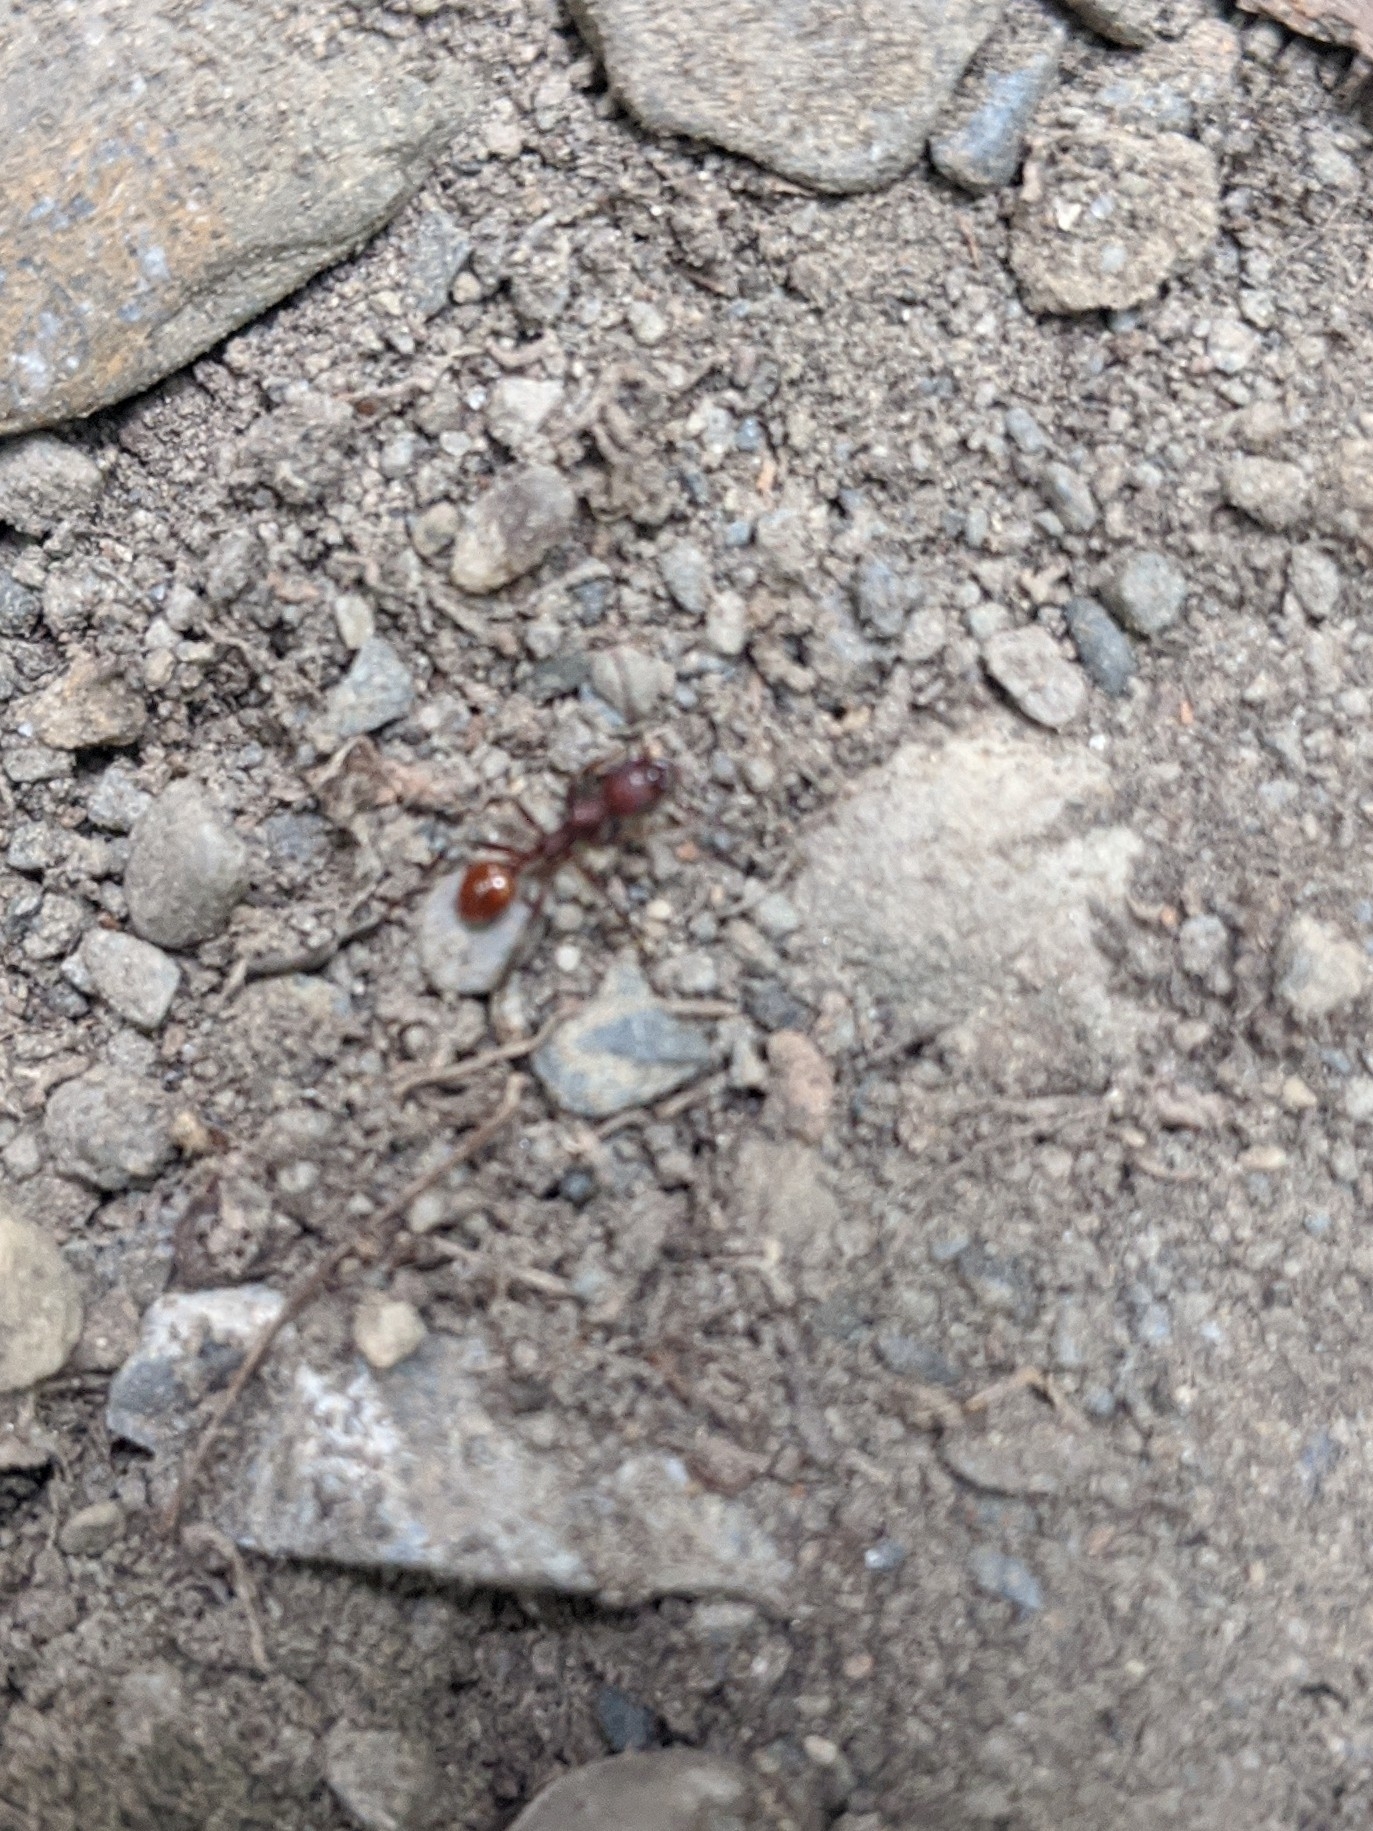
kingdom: Animalia
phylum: Arthropoda
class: Insecta
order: Hymenoptera
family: Formicidae
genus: Aphaenogaster
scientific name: Aphaenogaster tennesseensis
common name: Tennessee thread-waisted ant
